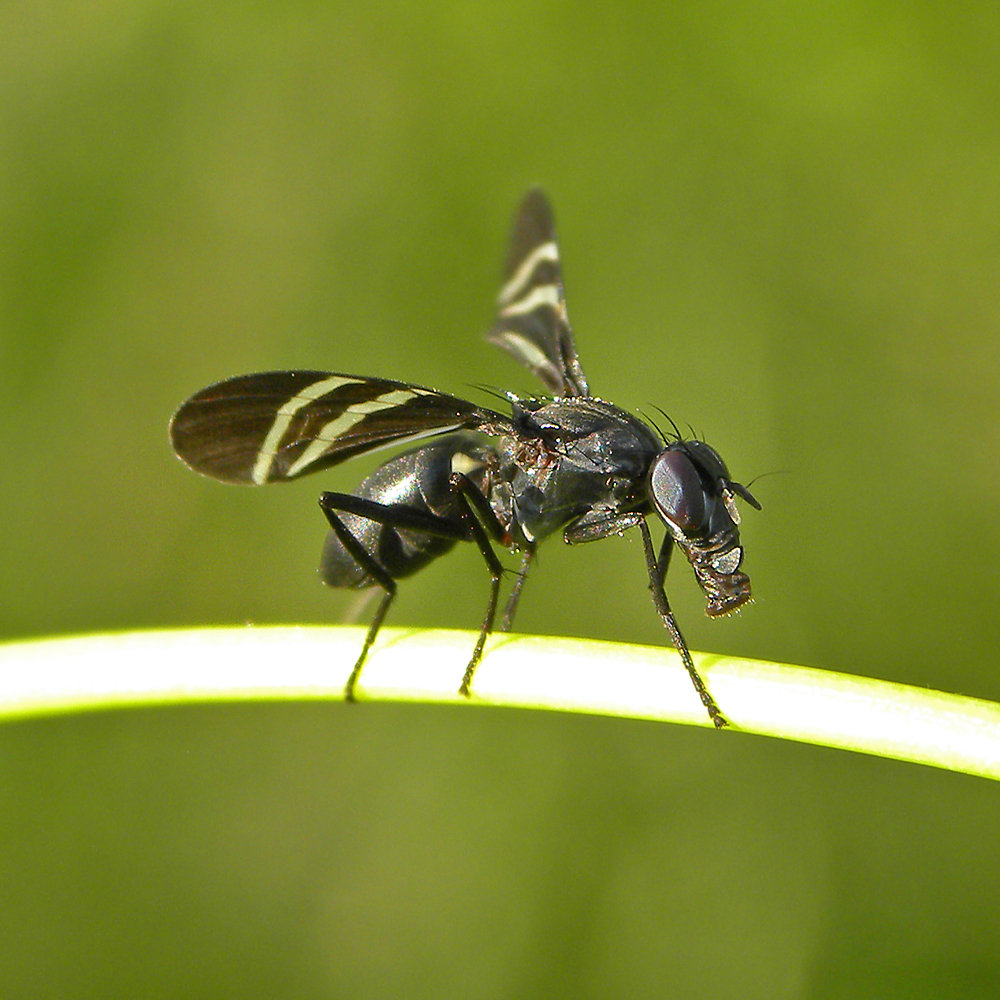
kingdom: Animalia
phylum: Arthropoda
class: Insecta
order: Diptera
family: Ulidiidae
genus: Tritoxa
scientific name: Tritoxa flexa
